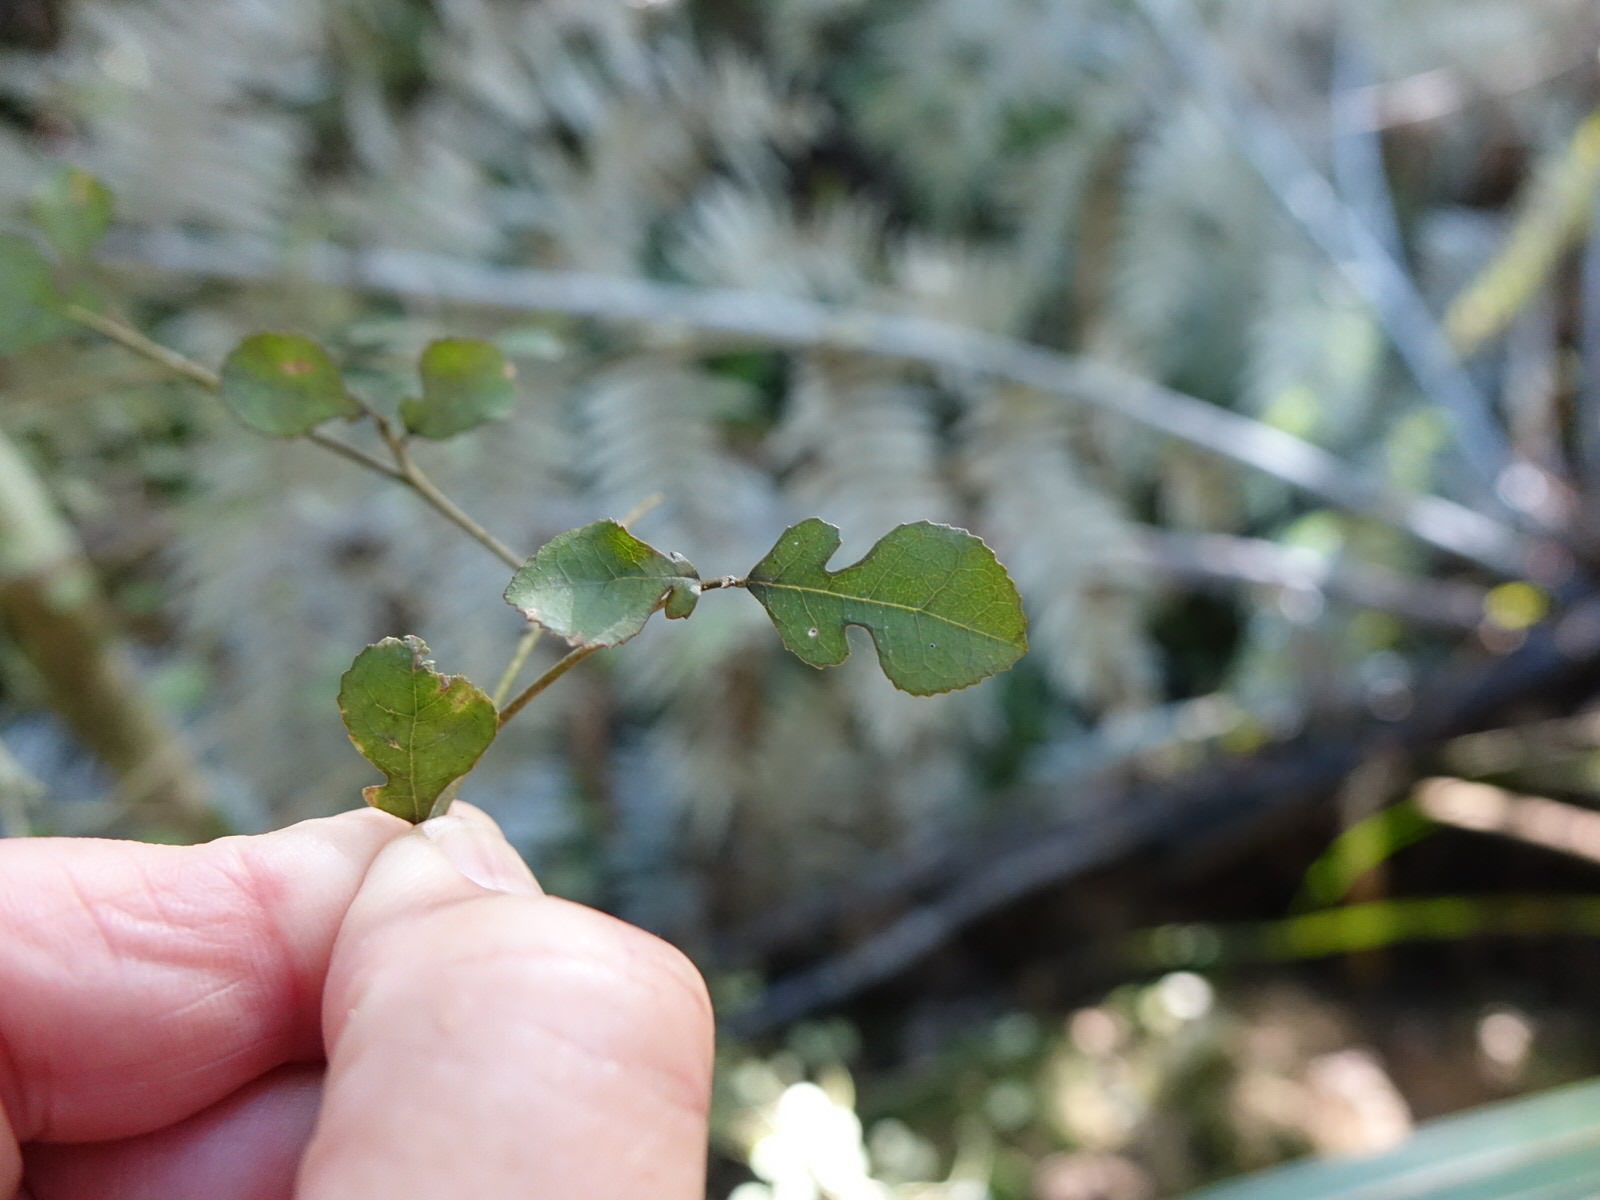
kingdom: Plantae
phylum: Tracheophyta
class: Magnoliopsida
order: Rosales
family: Moraceae
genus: Paratrophis
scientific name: Paratrophis microphylla
